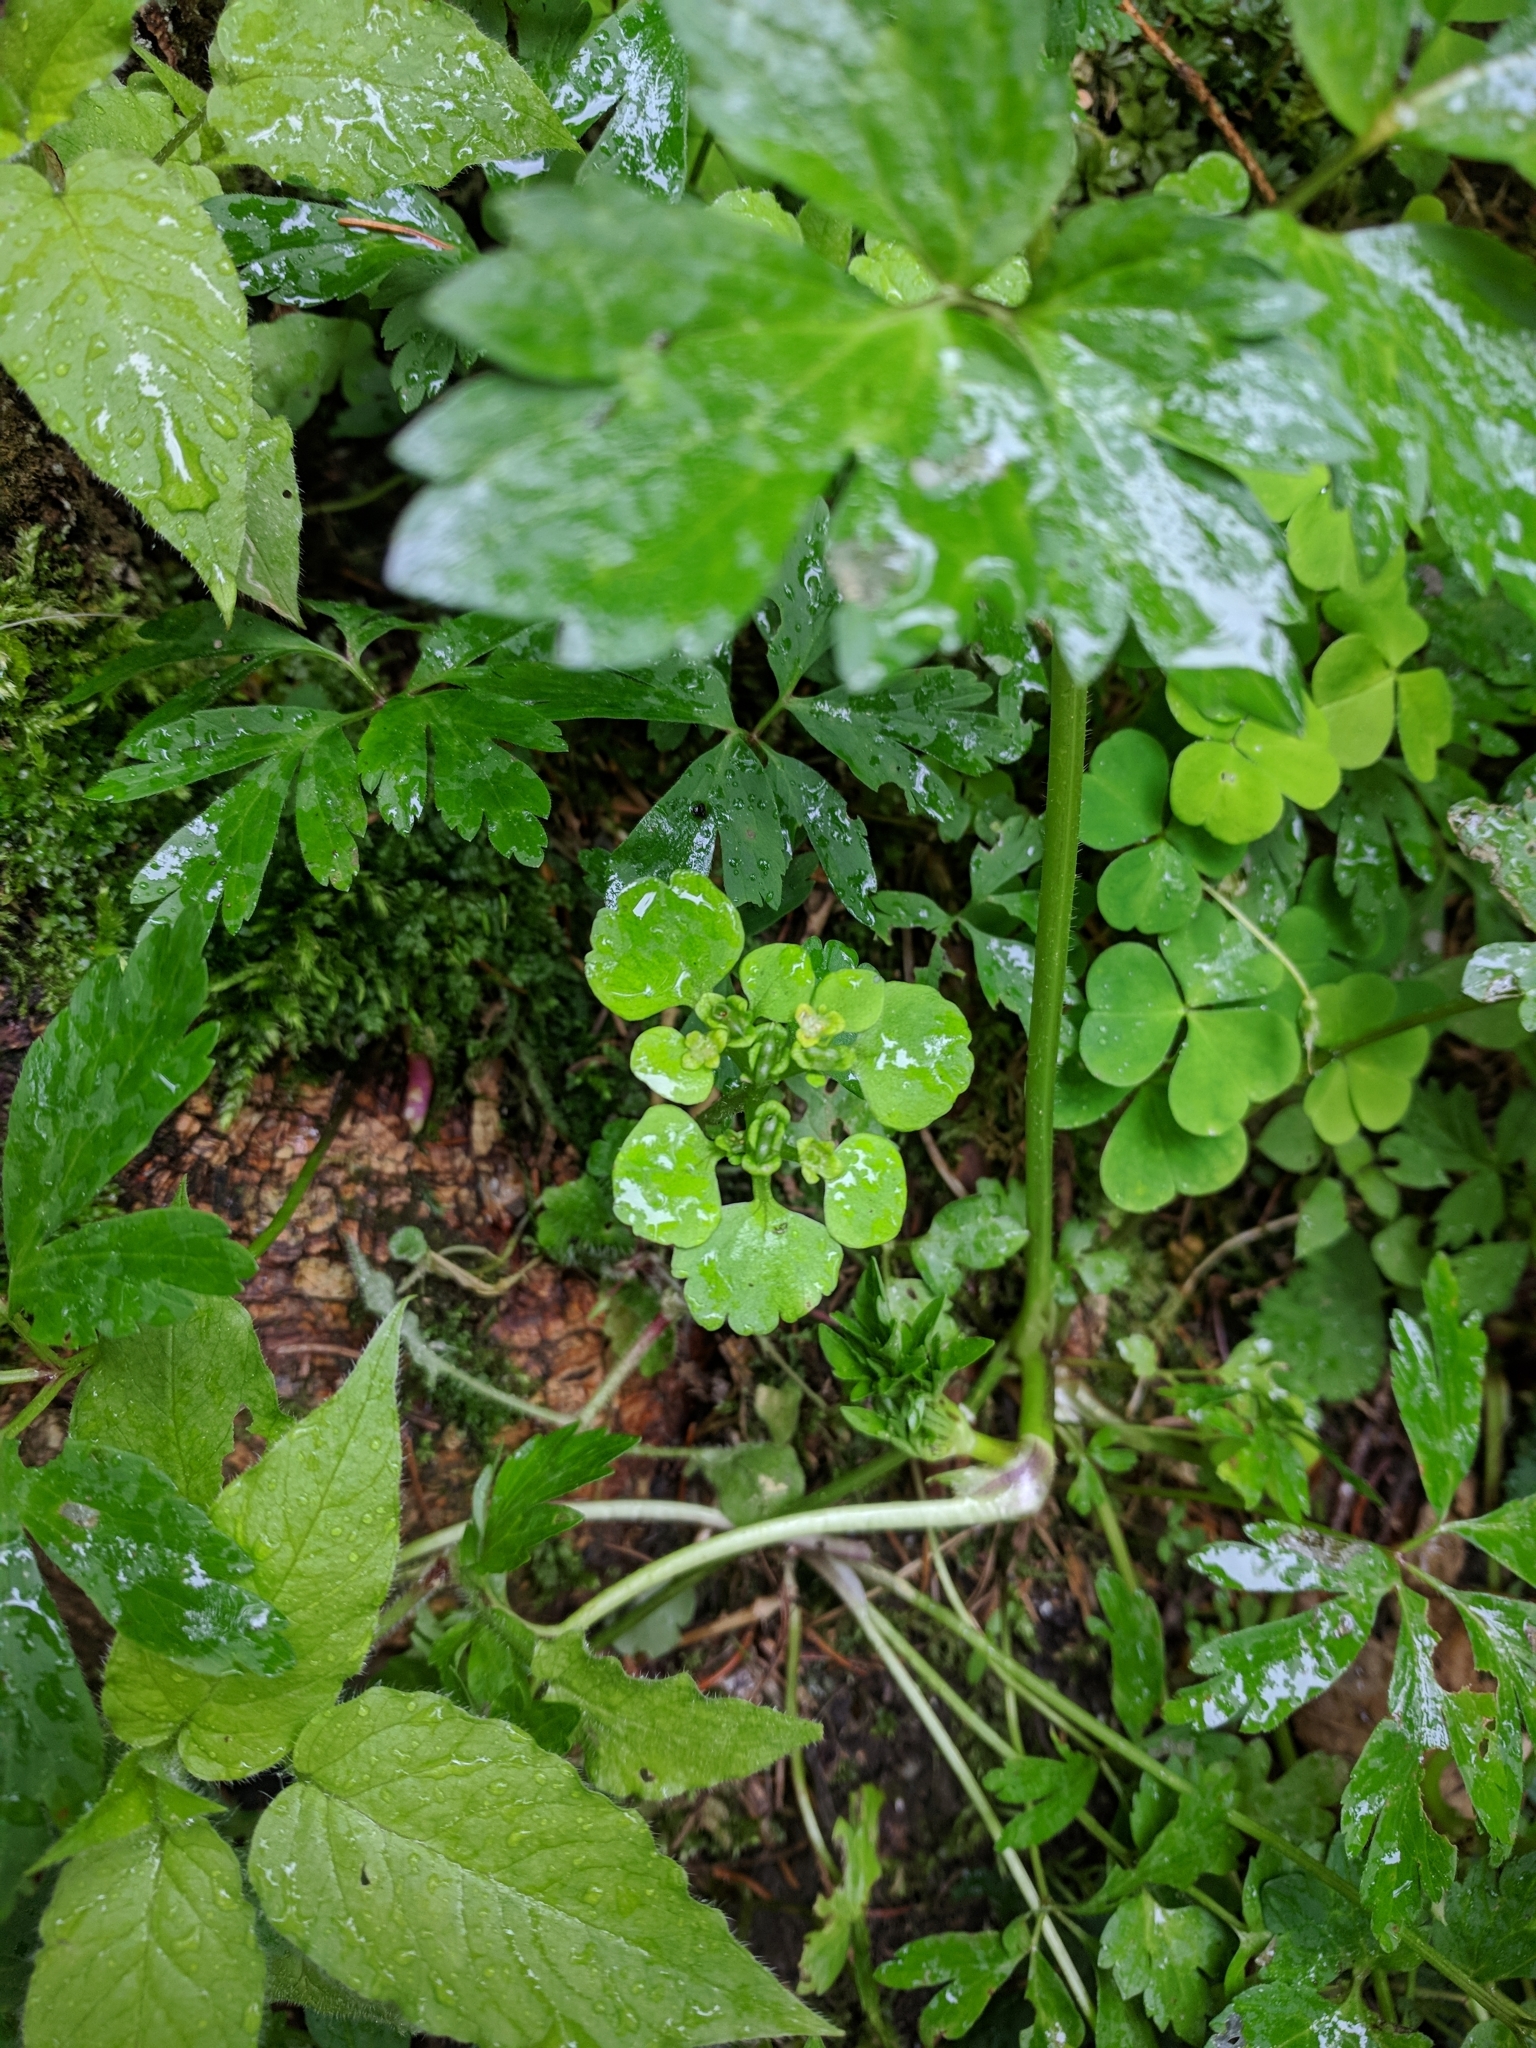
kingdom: Plantae
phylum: Tracheophyta
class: Magnoliopsida
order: Saxifragales
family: Saxifragaceae
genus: Chrysosplenium
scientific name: Chrysosplenium alternifolium
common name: Alternate-leaved golden-saxifrage
